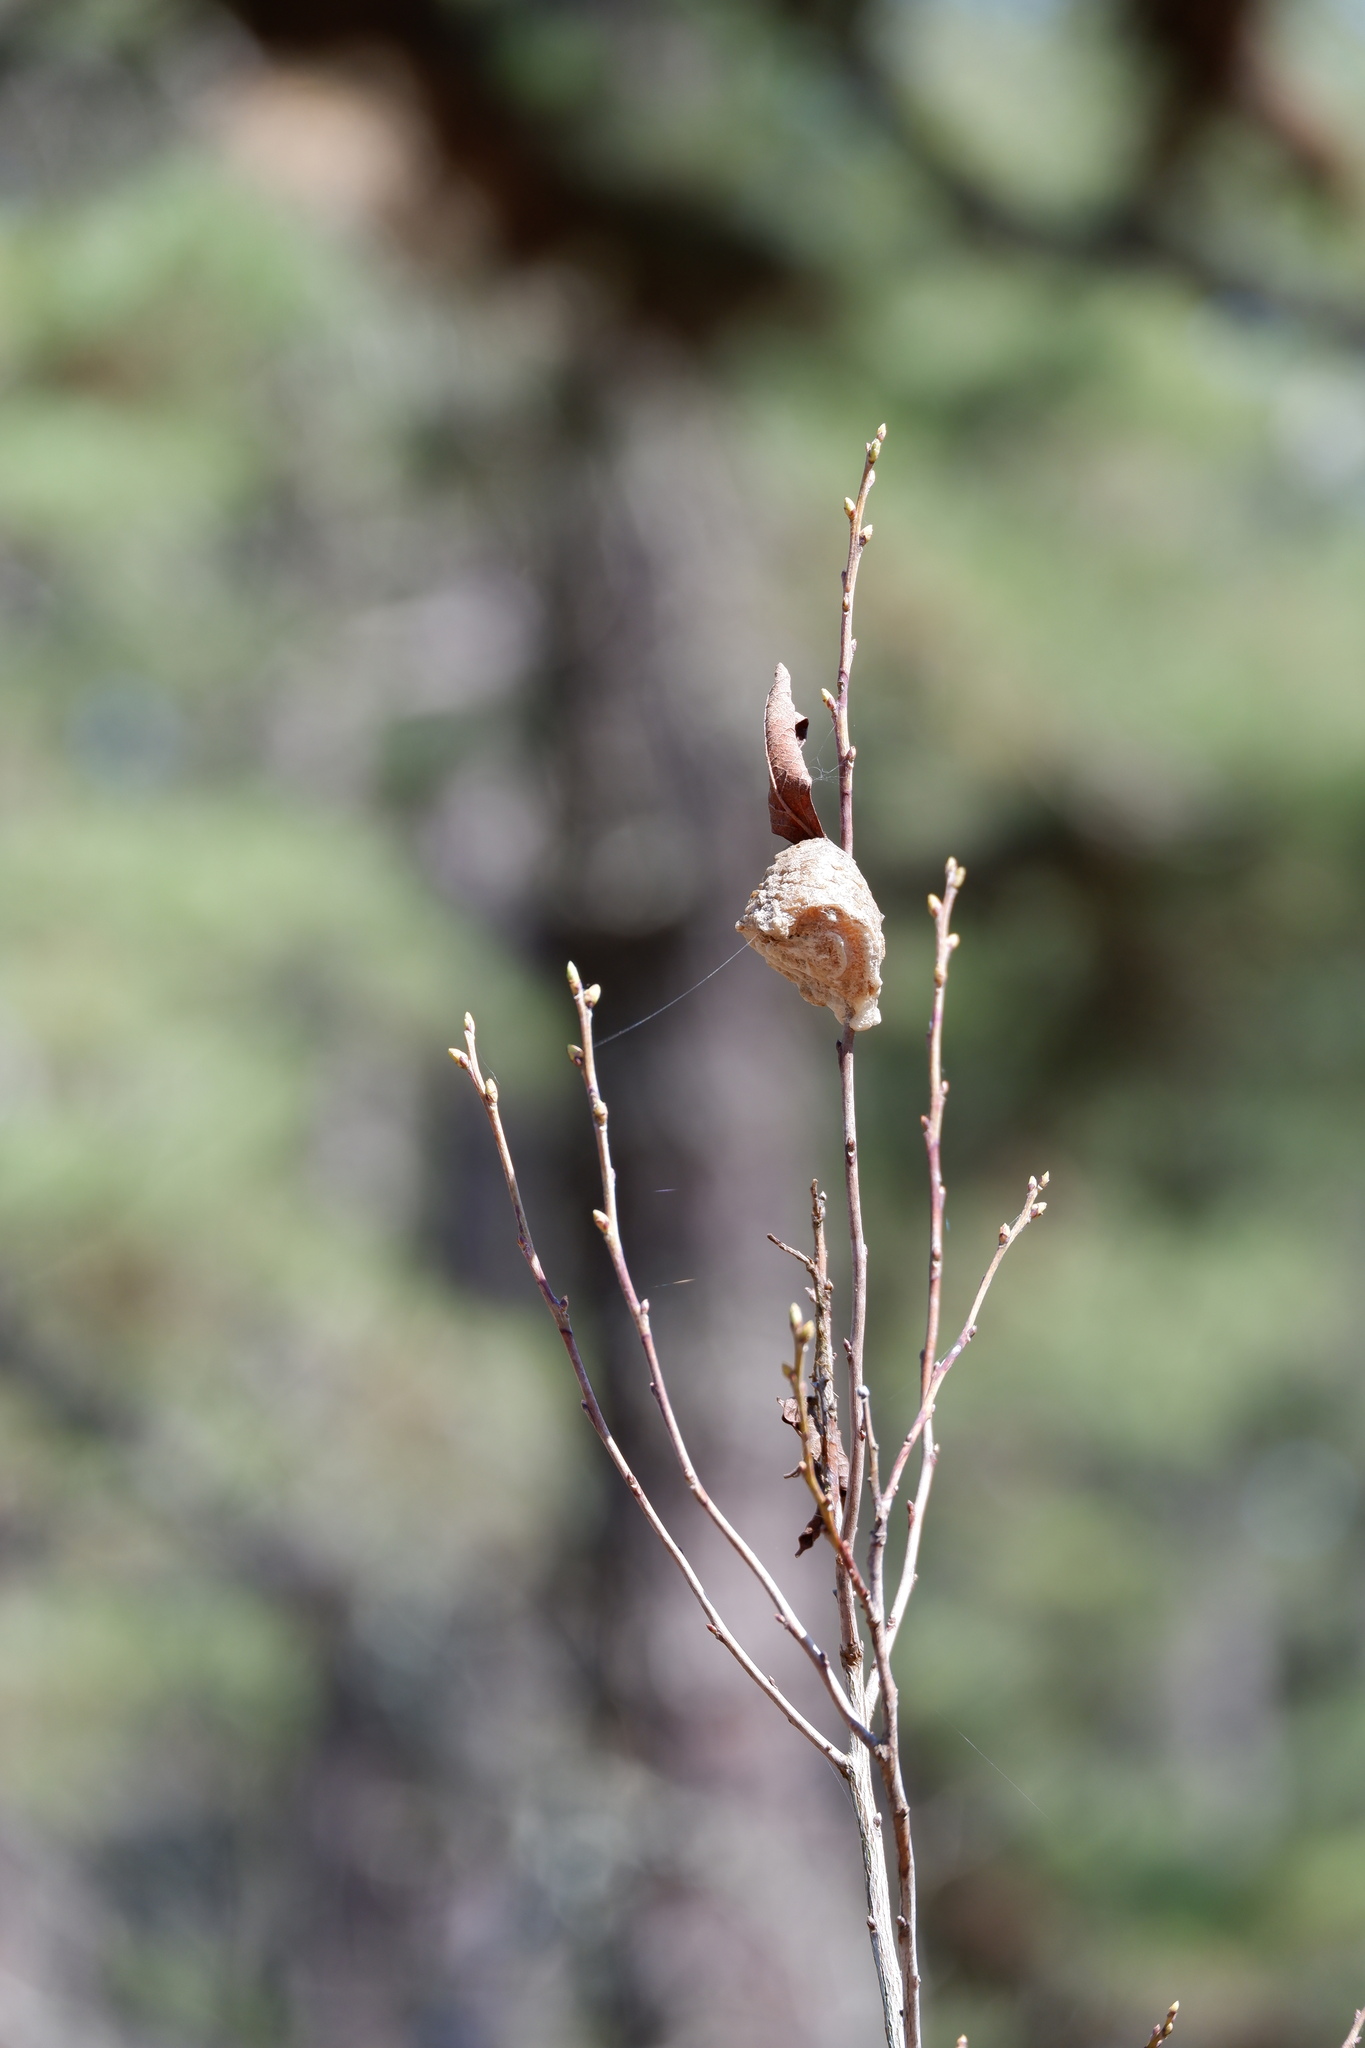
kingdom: Animalia
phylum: Arthropoda
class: Insecta
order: Mantodea
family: Mantidae
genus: Tenodera
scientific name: Tenodera sinensis
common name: Chinese mantis
